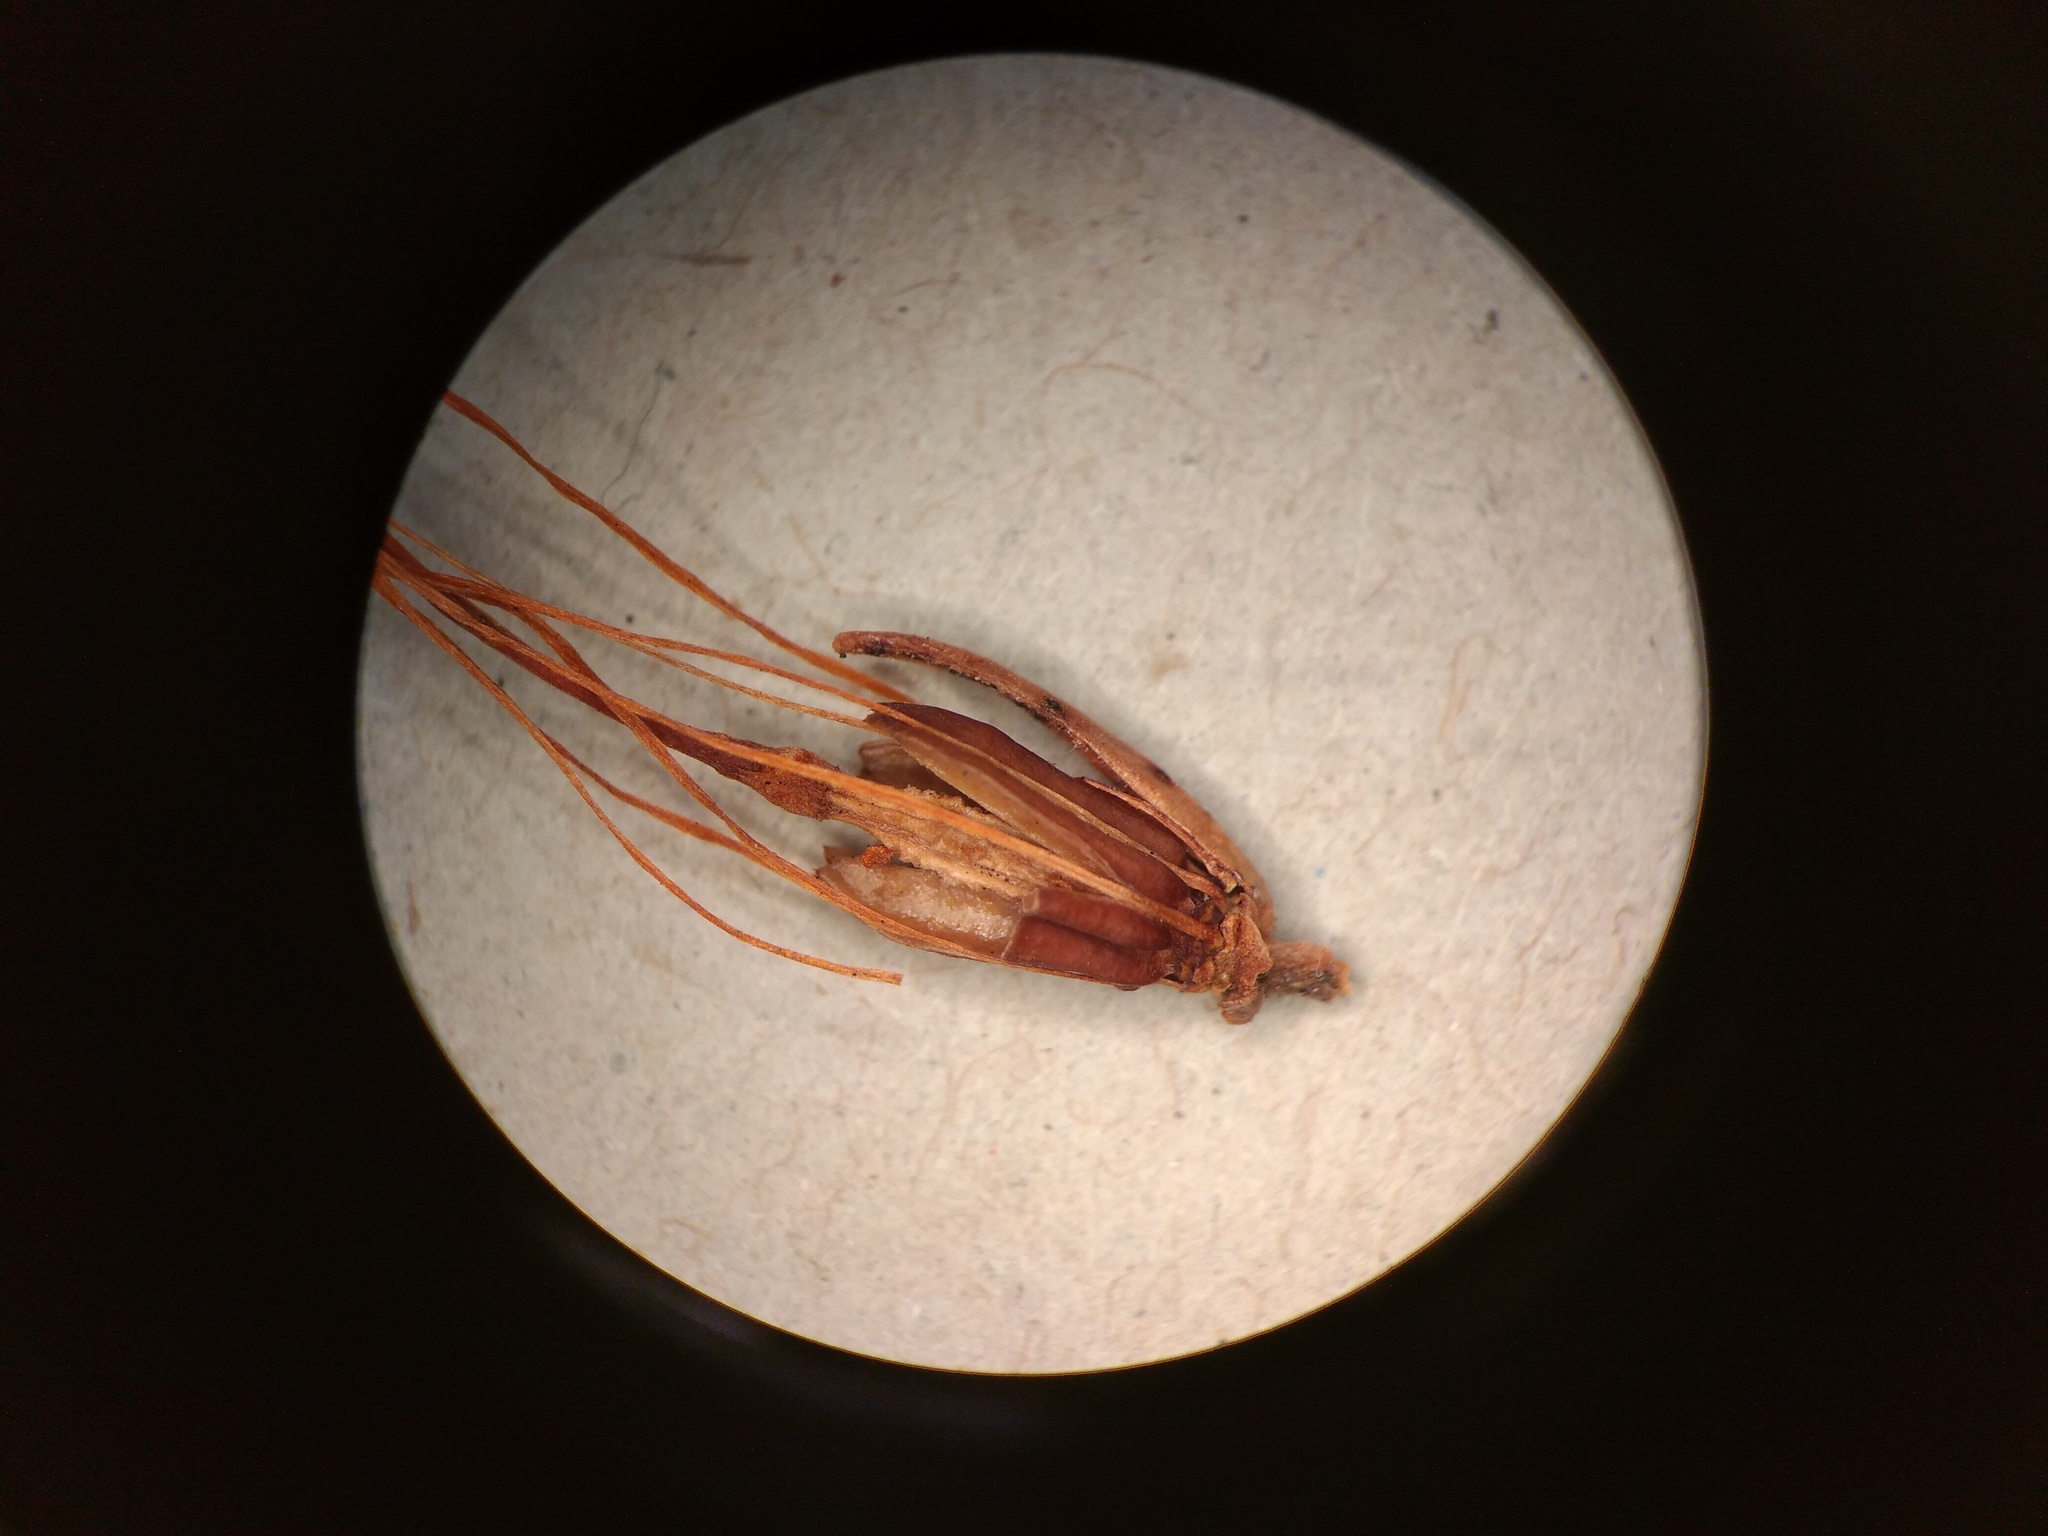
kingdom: Plantae
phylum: Tracheophyta
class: Magnoliopsida
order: Ericales
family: Ericaceae
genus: Erica
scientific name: Erica quadrisulcata
